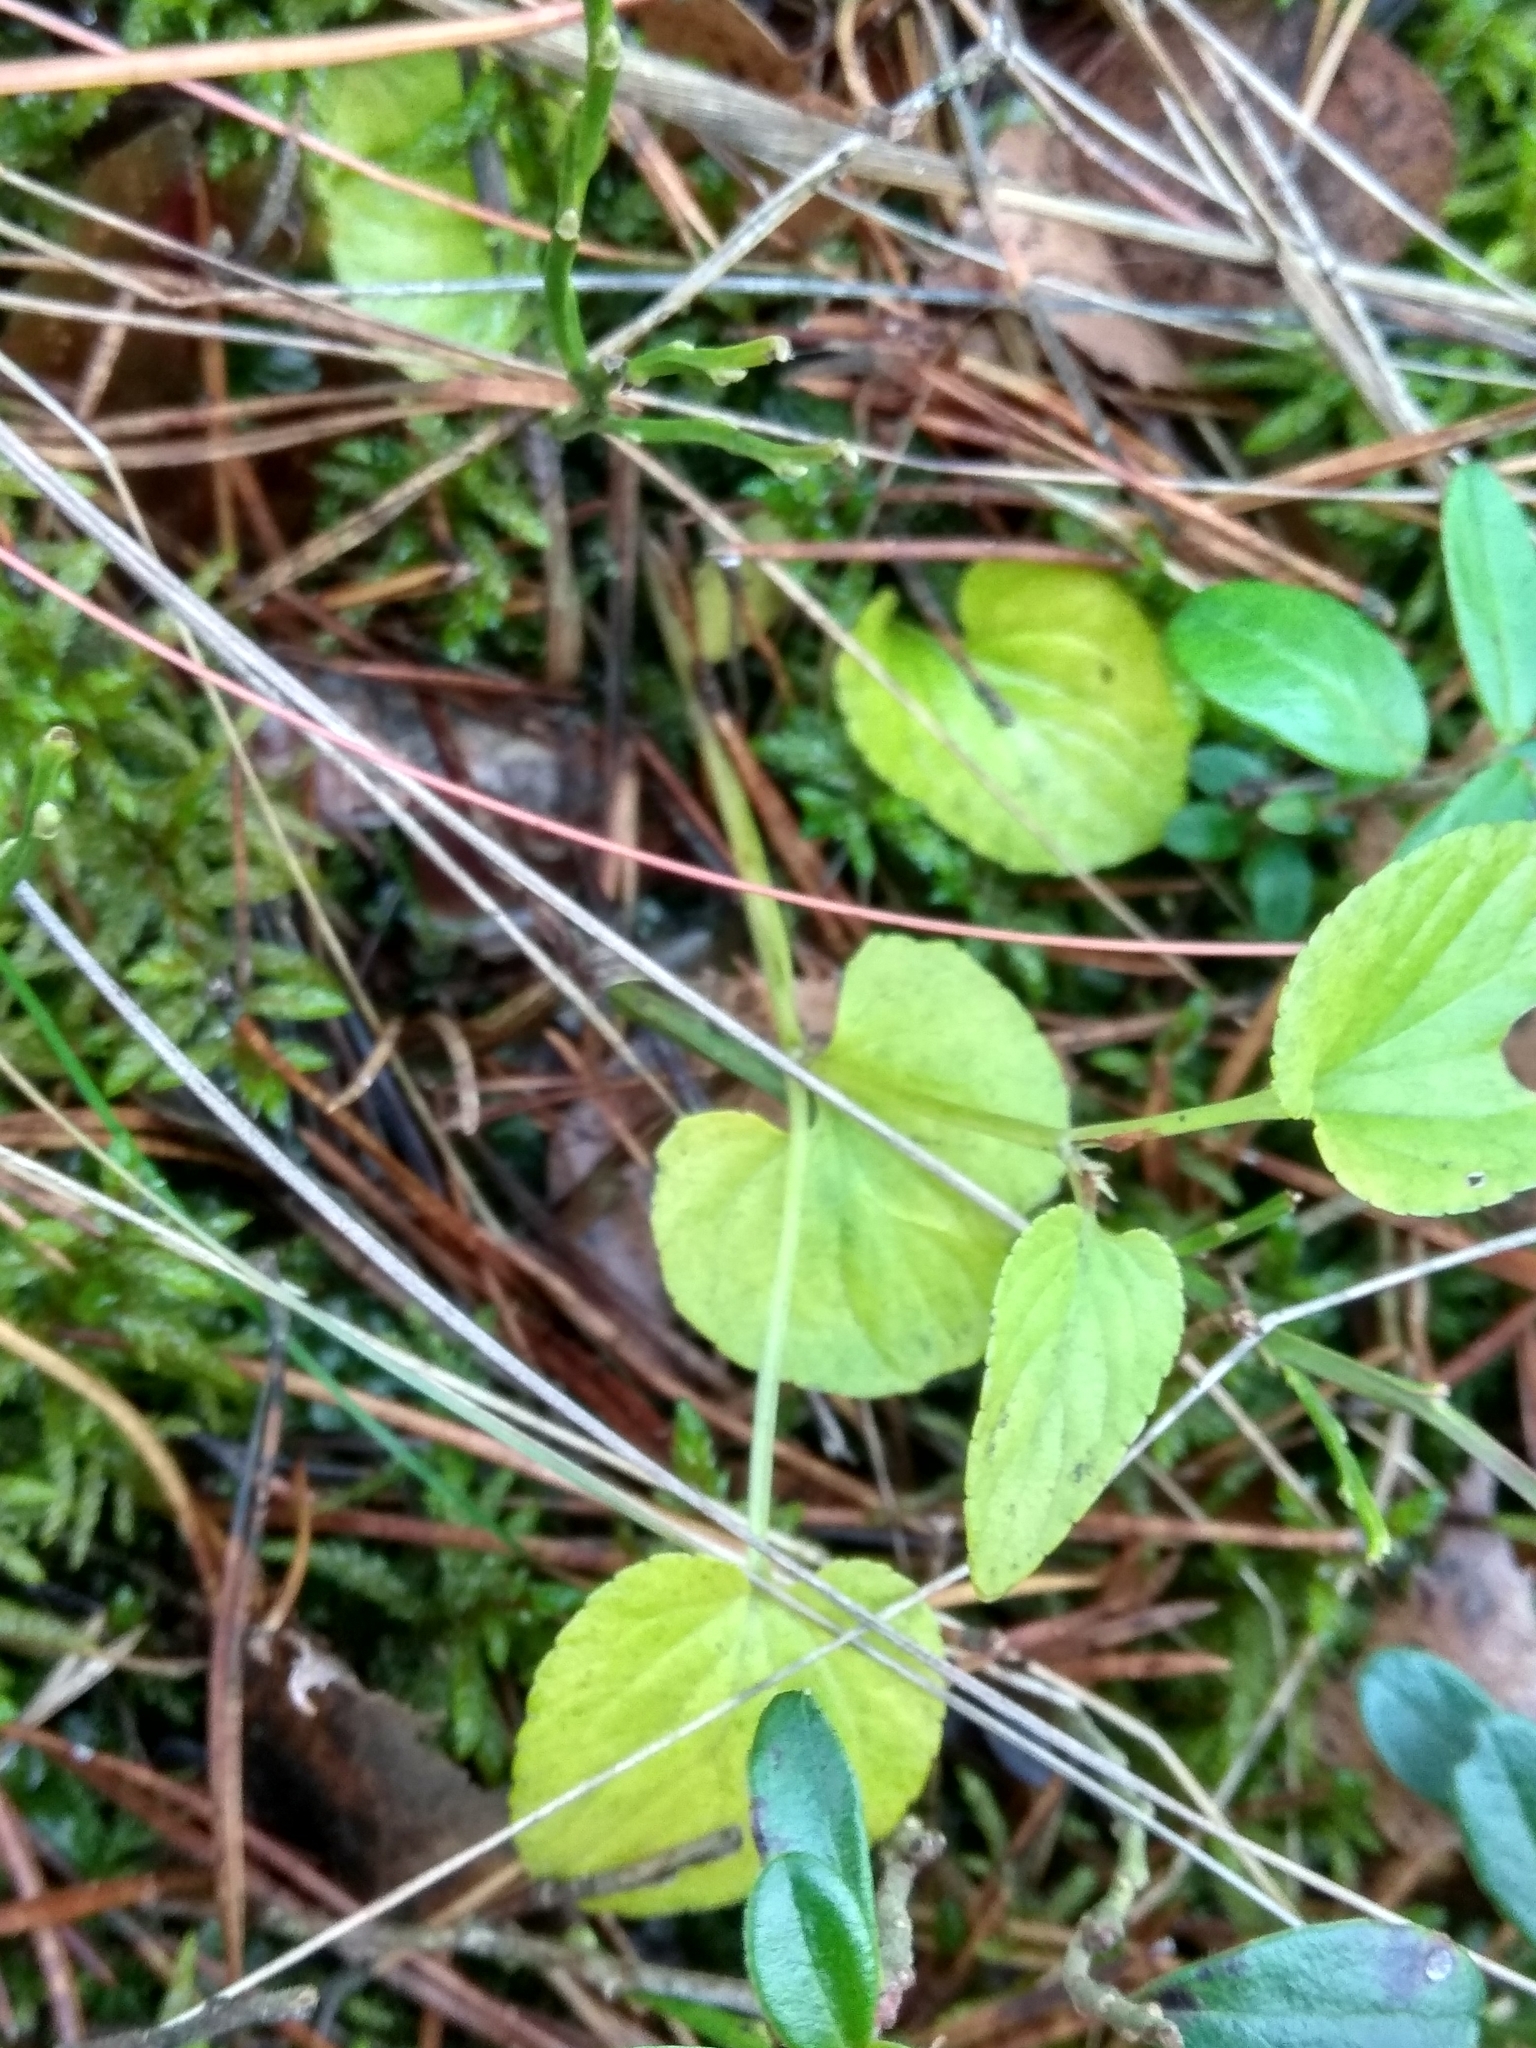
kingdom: Plantae
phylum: Tracheophyta
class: Magnoliopsida
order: Malpighiales
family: Violaceae
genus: Viola
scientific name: Viola
